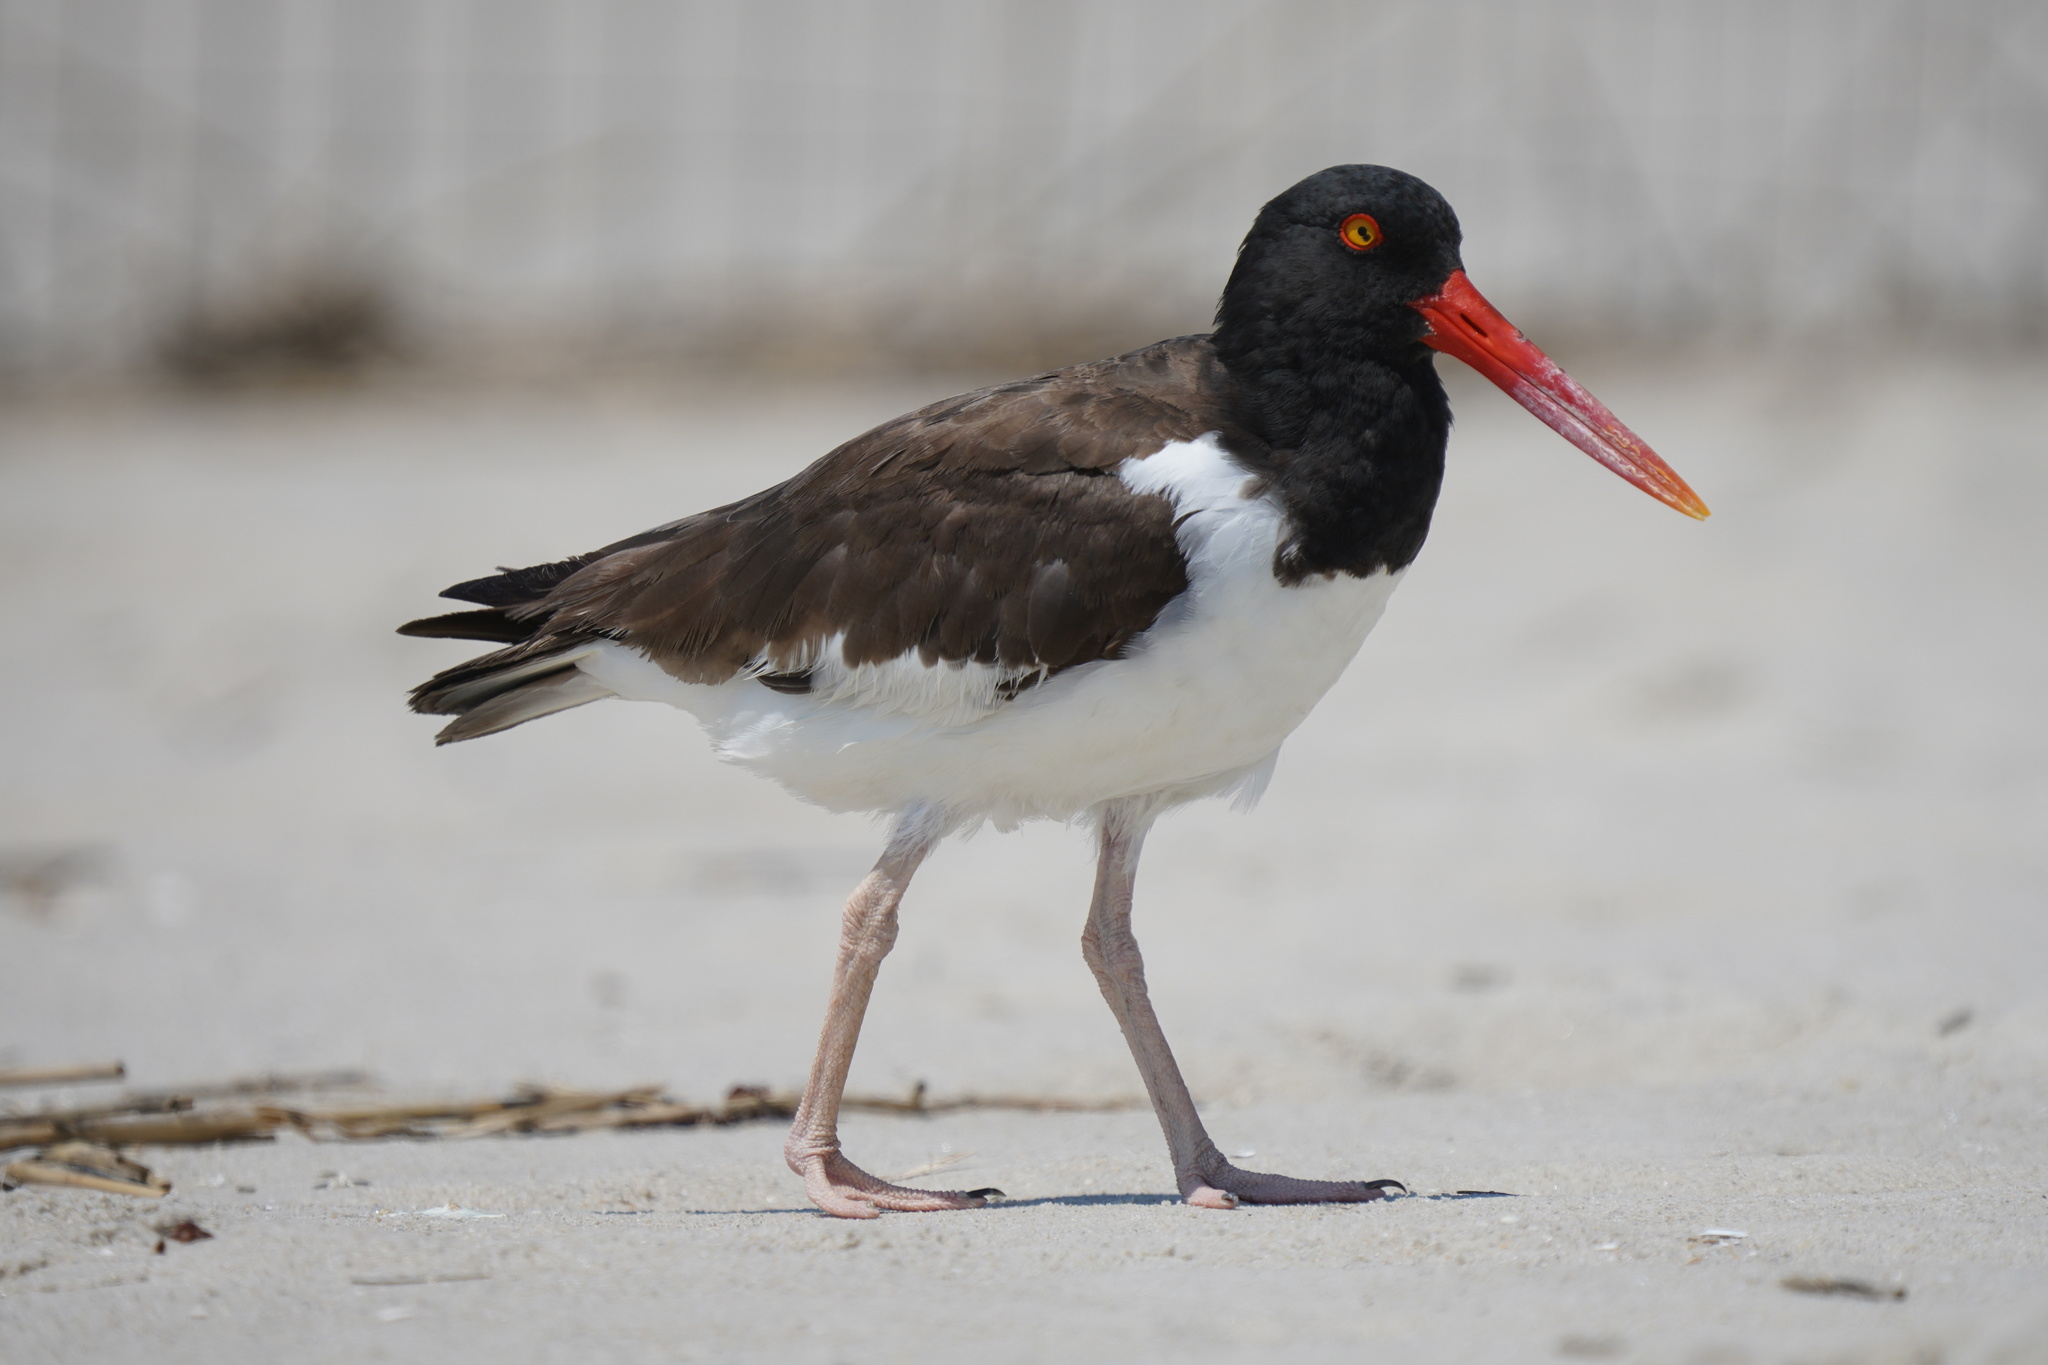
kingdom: Animalia
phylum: Chordata
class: Aves
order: Charadriiformes
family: Haematopodidae
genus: Haematopus
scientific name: Haematopus palliatus
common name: American oystercatcher
